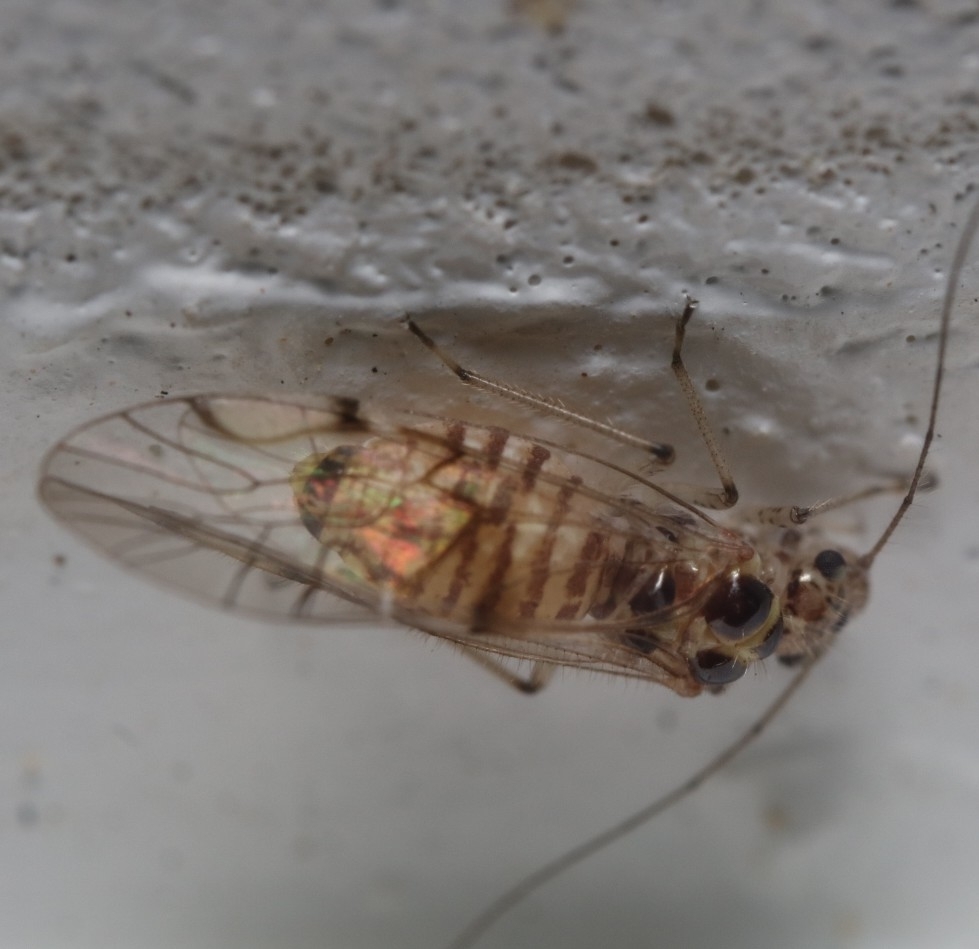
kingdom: Animalia
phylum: Arthropoda
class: Insecta
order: Psocodea
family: Dasydemellidae
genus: Teliapsocus
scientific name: Teliapsocus conterminus
